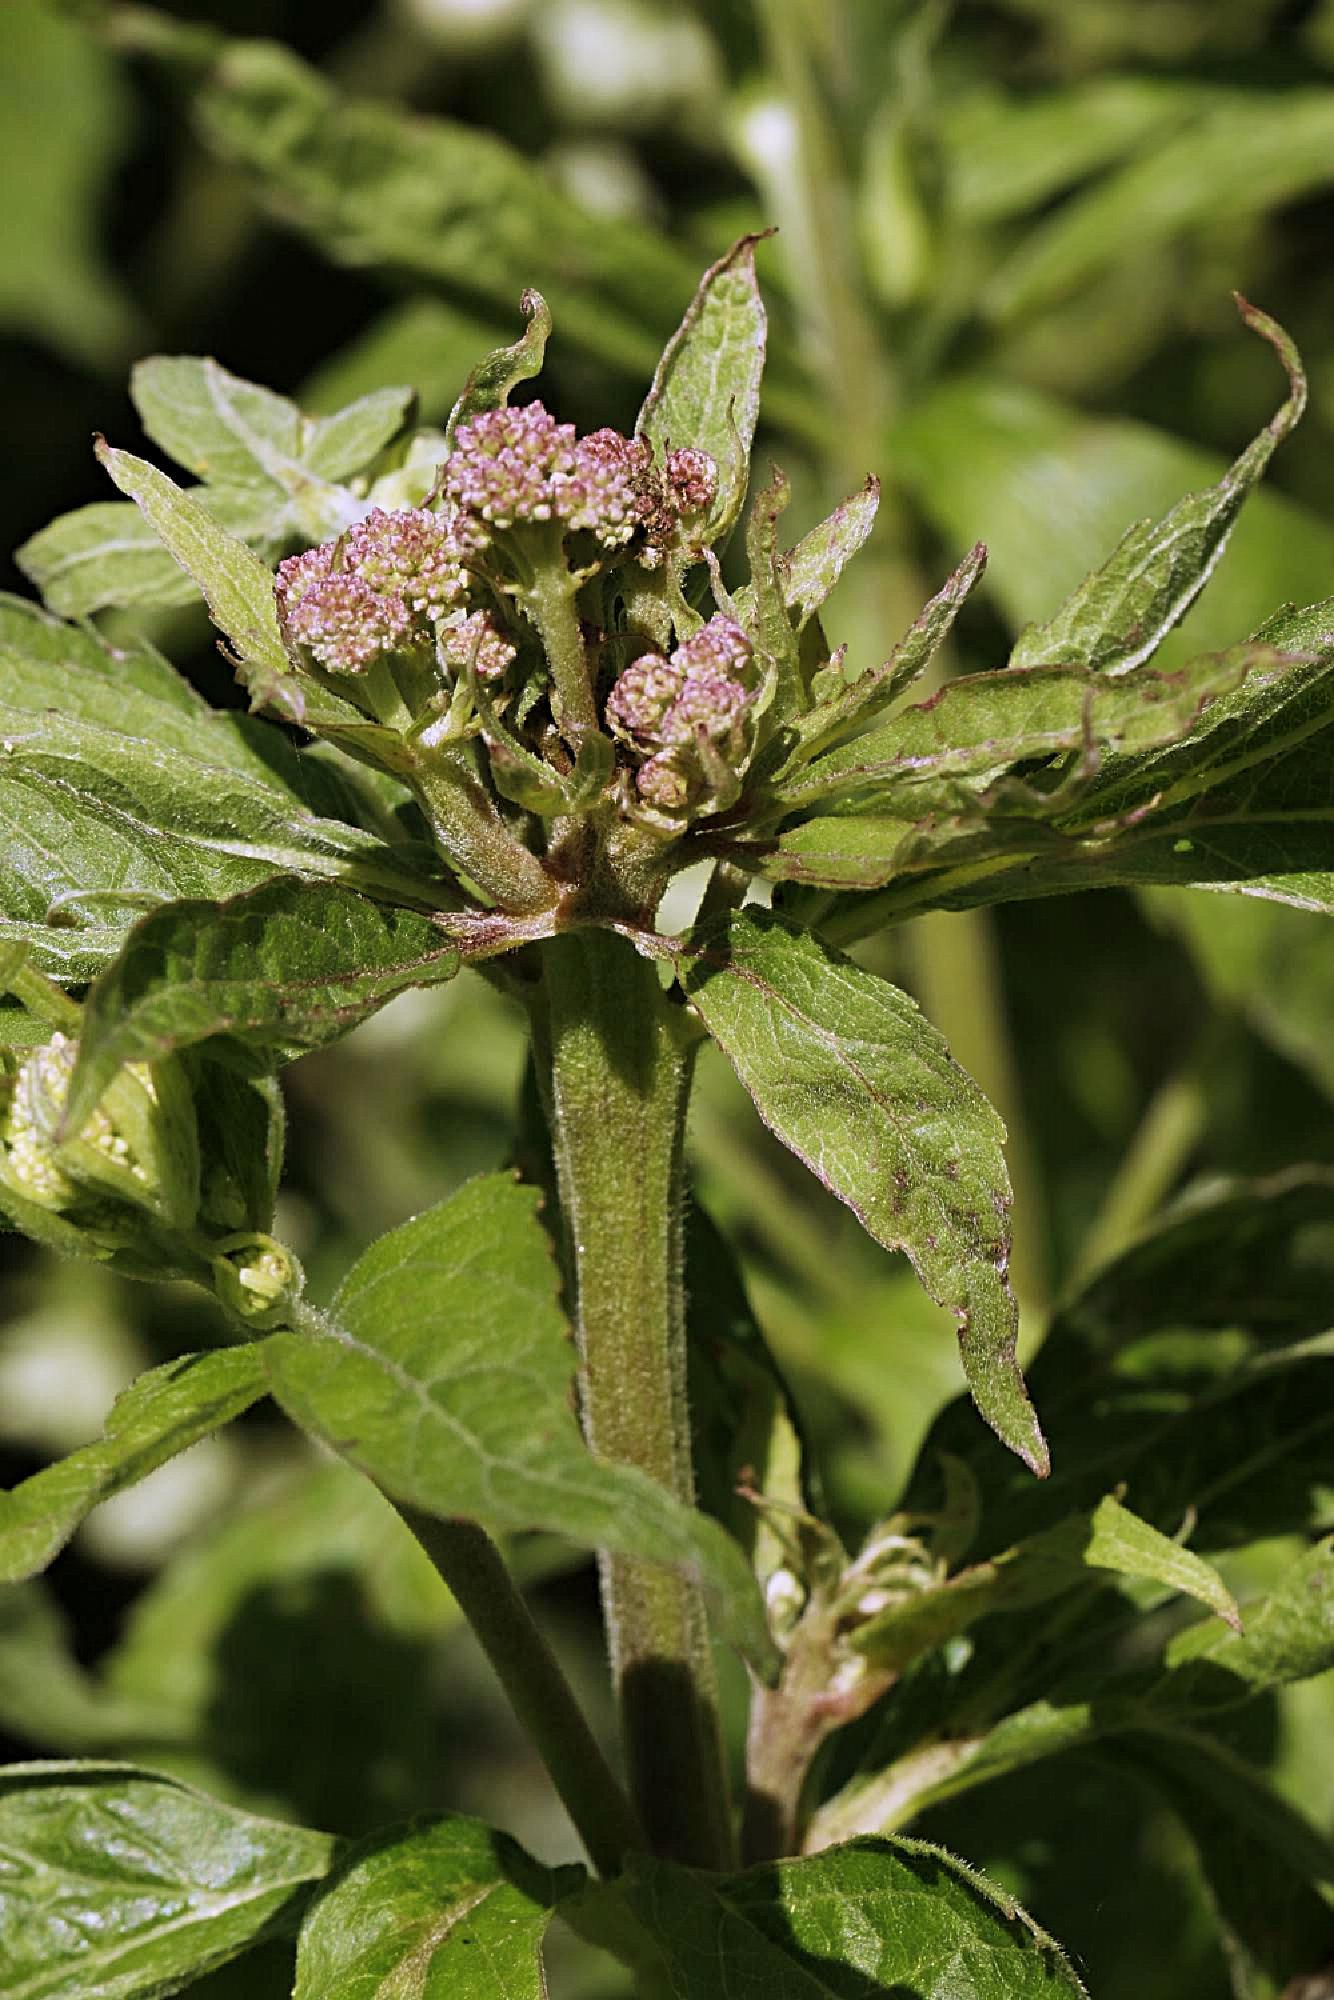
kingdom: Plantae
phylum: Tracheophyta
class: Magnoliopsida
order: Asterales
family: Asteraceae
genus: Eupatorium
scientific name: Eupatorium cannabinum
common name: Hemp-agrimony
